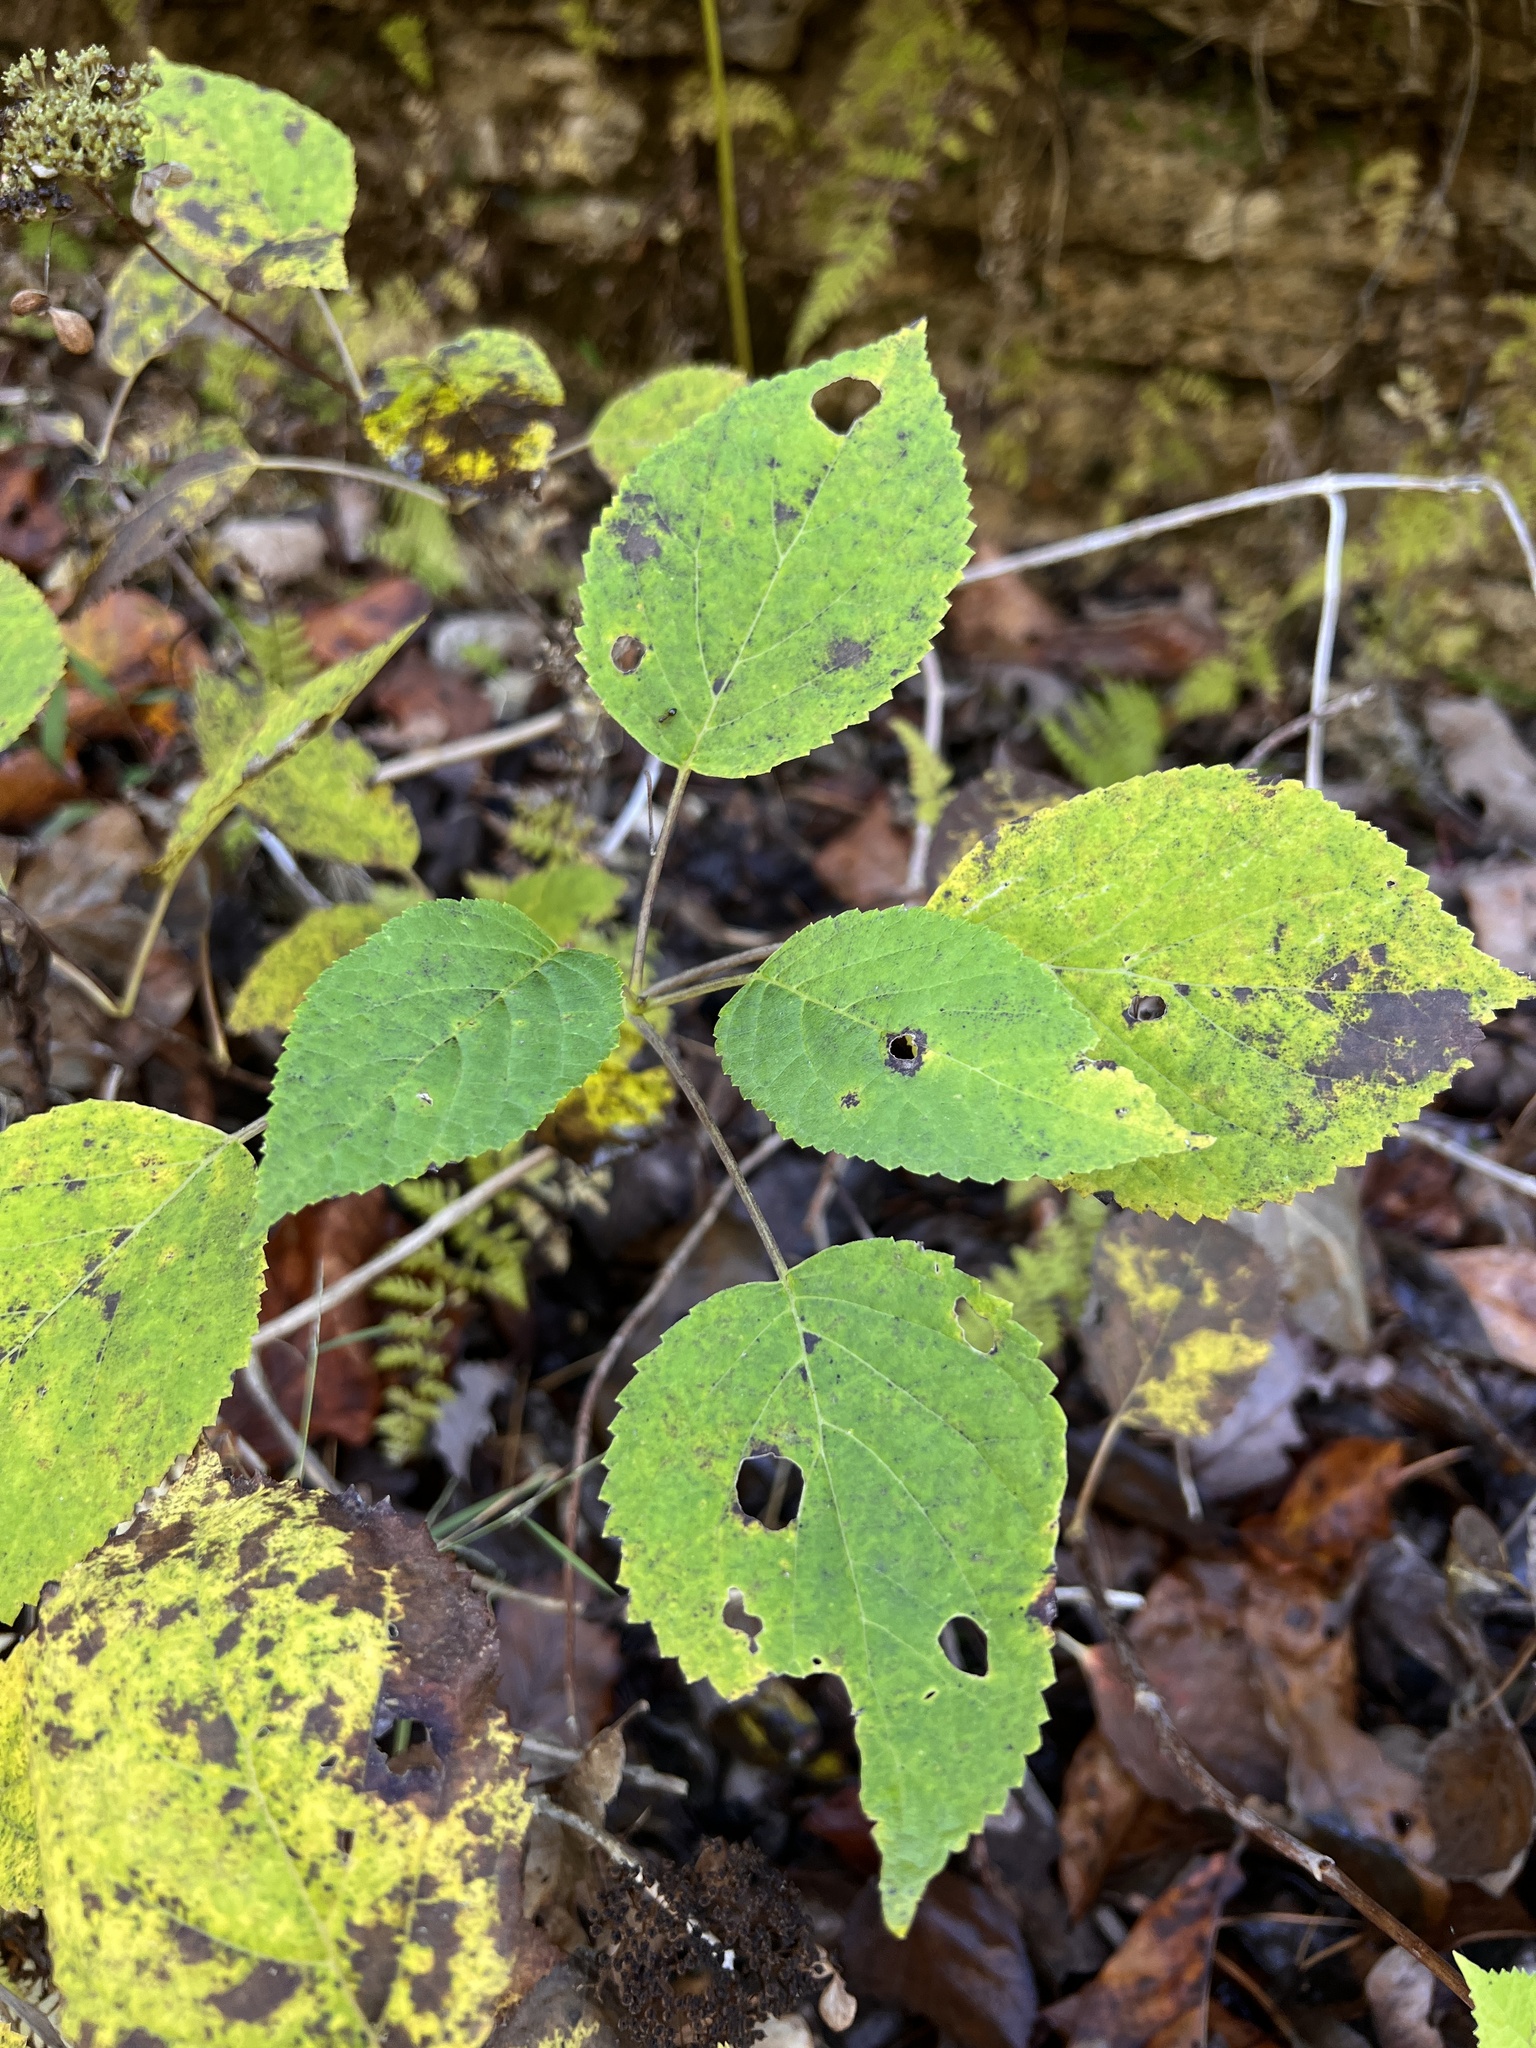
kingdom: Plantae
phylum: Tracheophyta
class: Magnoliopsida
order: Cornales
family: Hydrangeaceae
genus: Hydrangea
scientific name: Hydrangea arborescens
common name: Sevenbark
